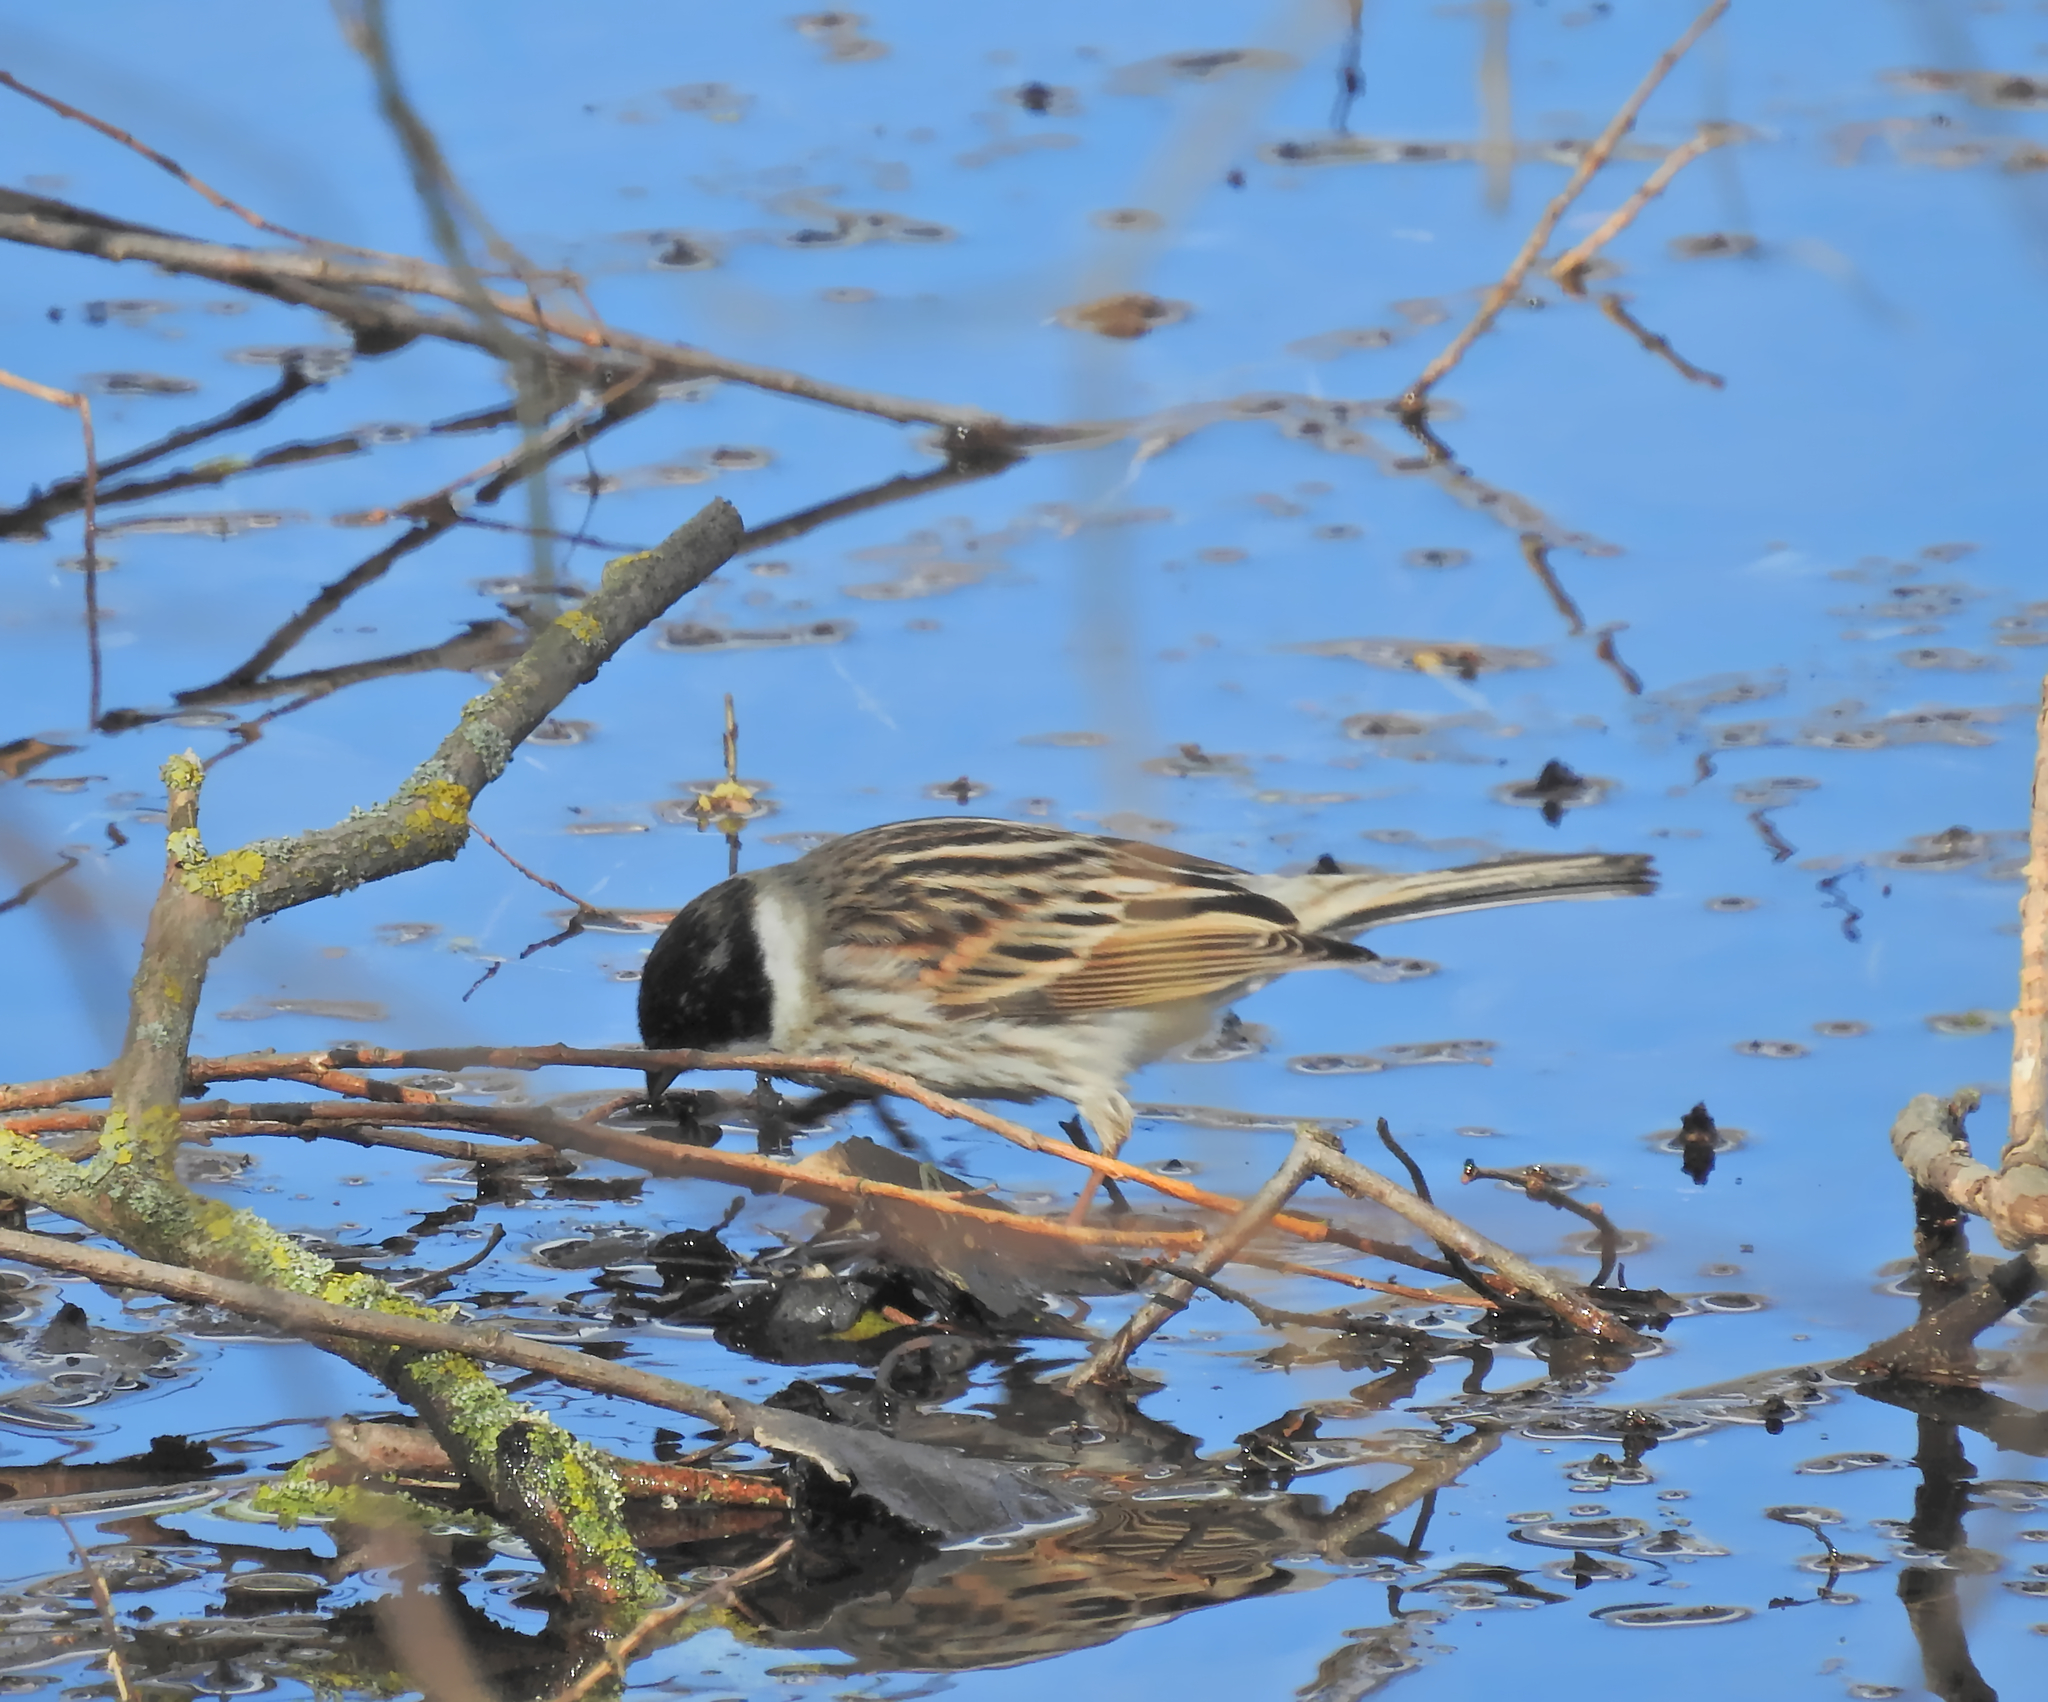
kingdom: Animalia
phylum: Chordata
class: Aves
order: Passeriformes
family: Emberizidae
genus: Emberiza
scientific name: Emberiza schoeniclus
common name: Reed bunting
